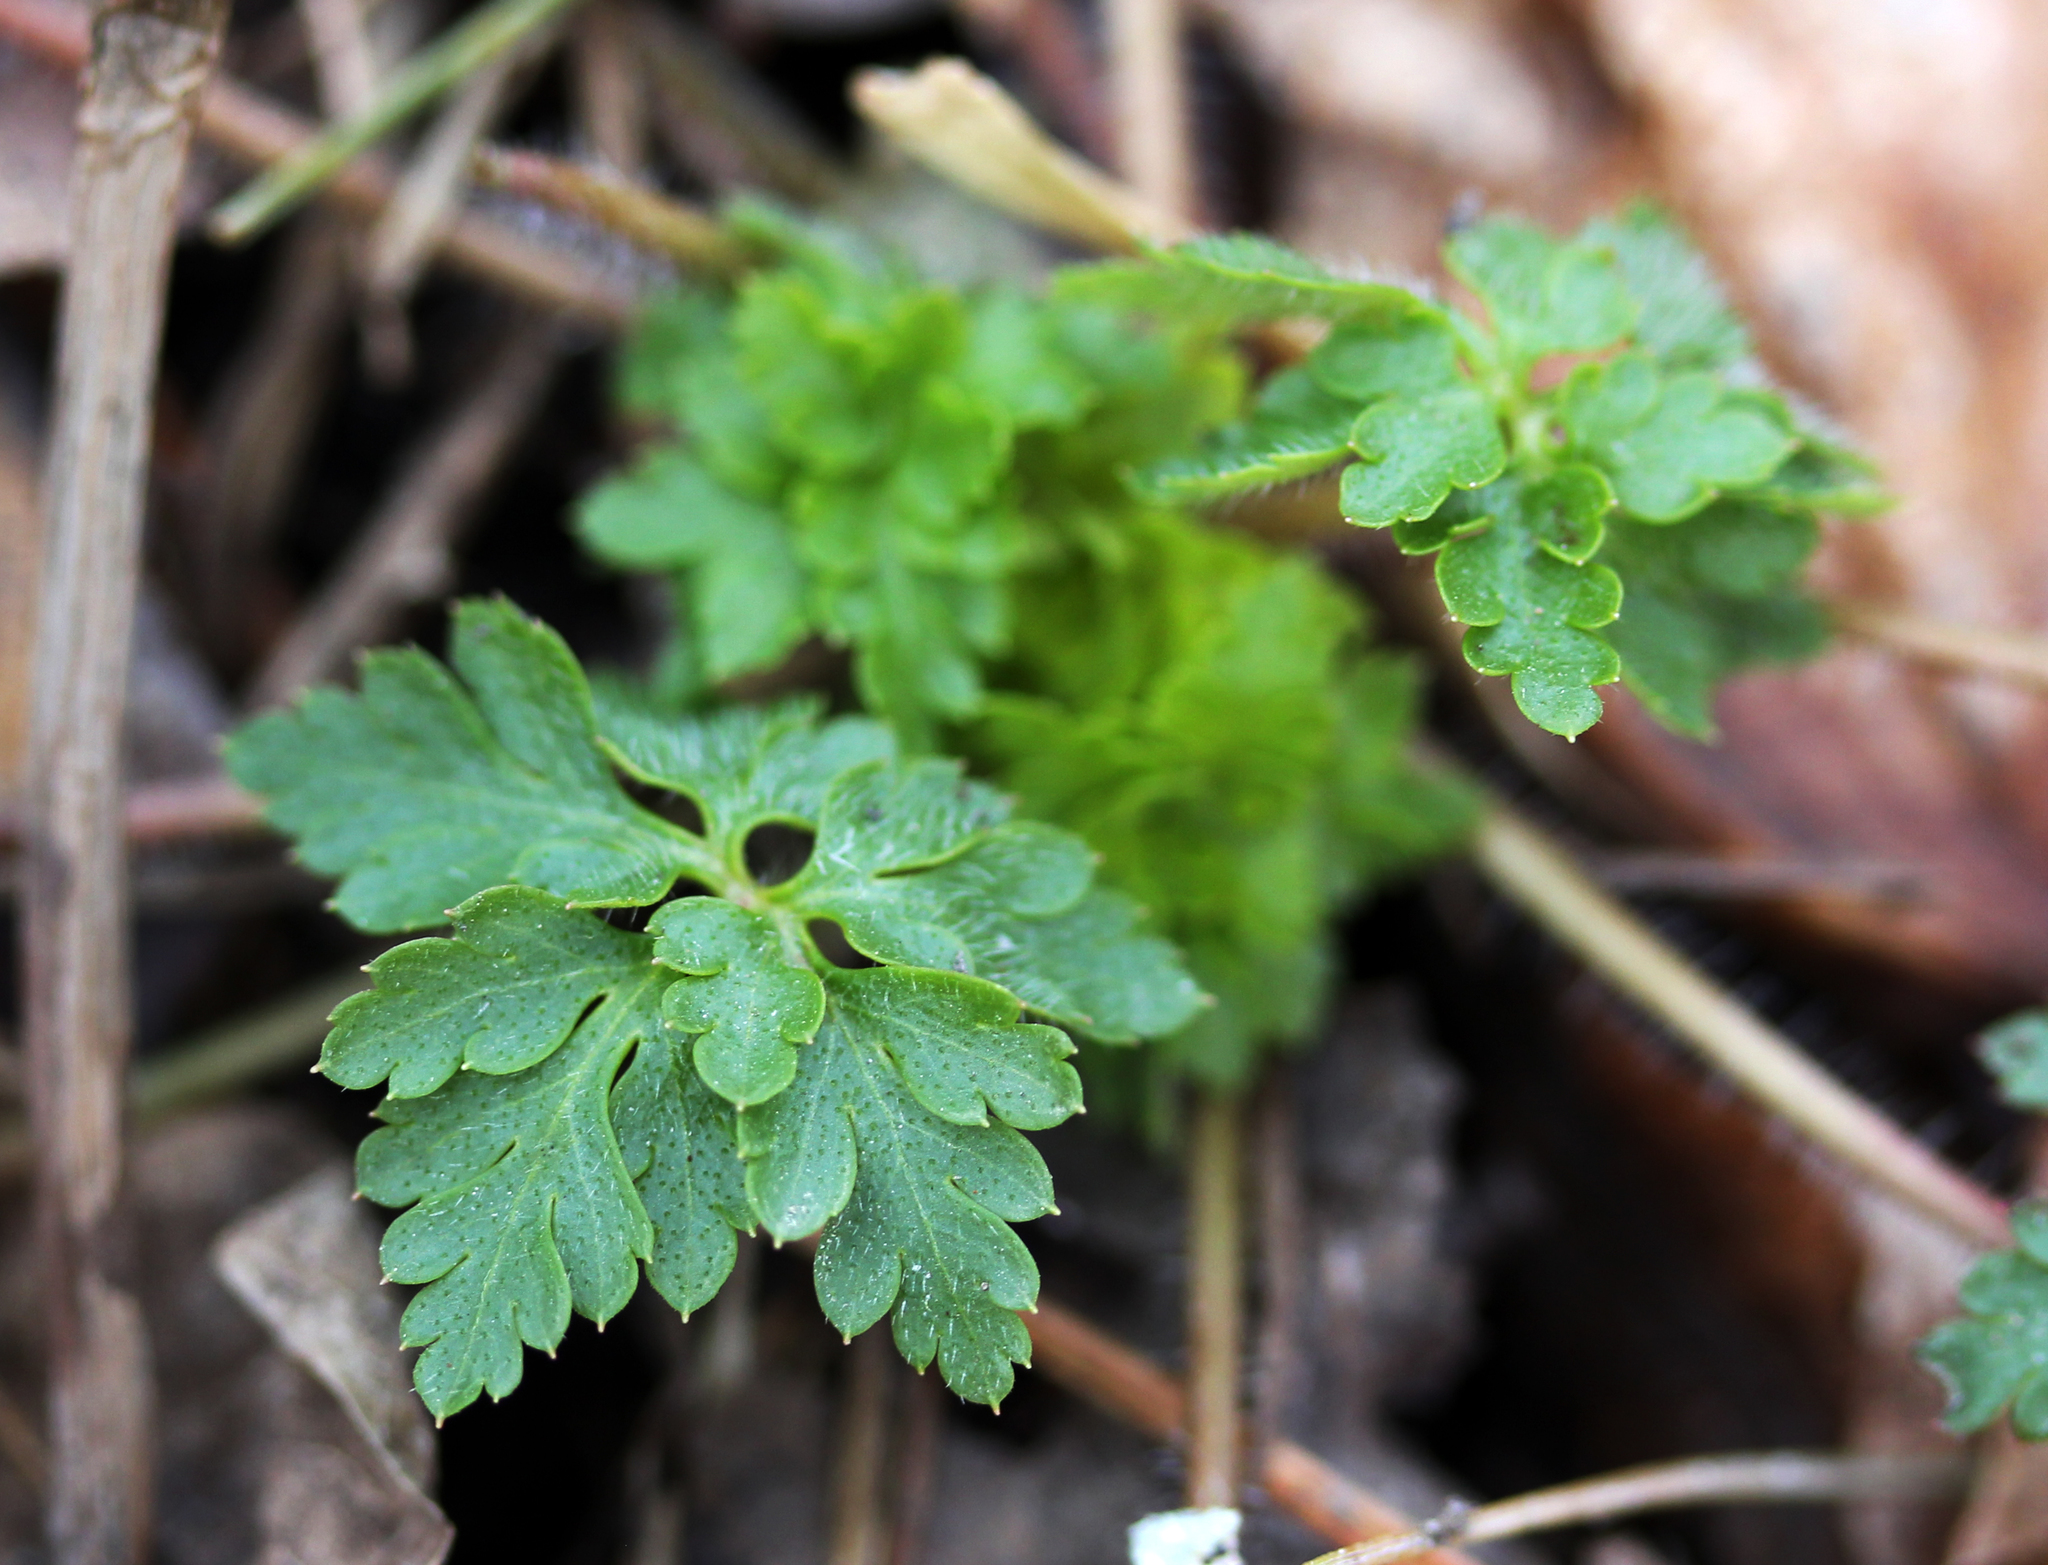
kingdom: Plantae
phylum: Tracheophyta
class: Magnoliopsida
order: Geraniales
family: Geraniaceae
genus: Geranium
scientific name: Geranium robertianum
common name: Herb-robert
